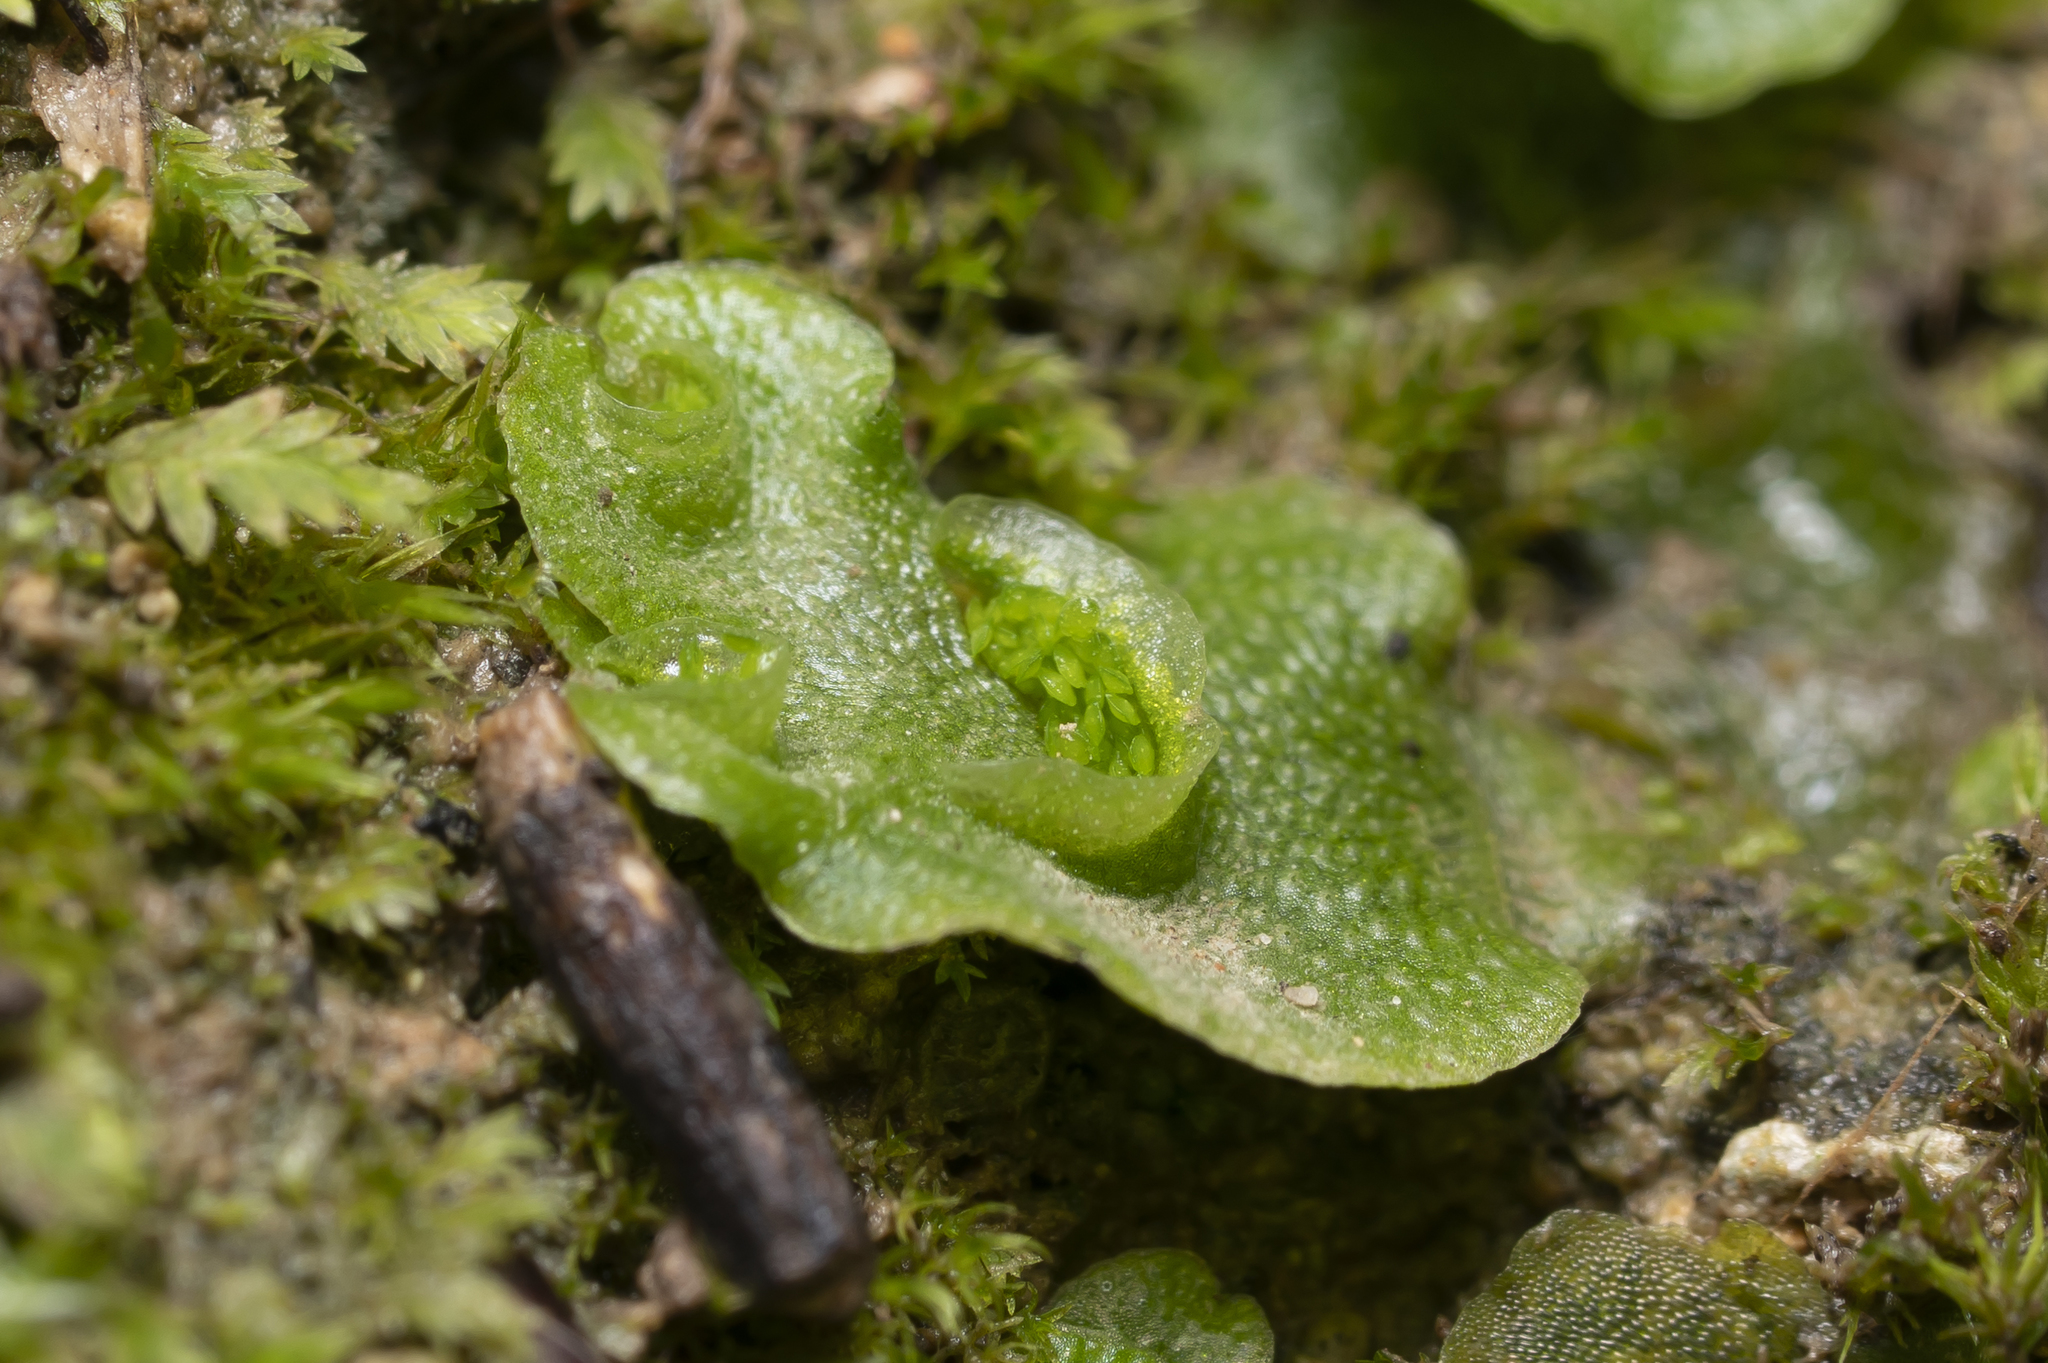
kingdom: Plantae
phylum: Marchantiophyta
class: Marchantiopsida
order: Lunulariales
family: Lunulariaceae
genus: Lunularia
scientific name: Lunularia cruciata
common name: Crescent-cup liverwort
